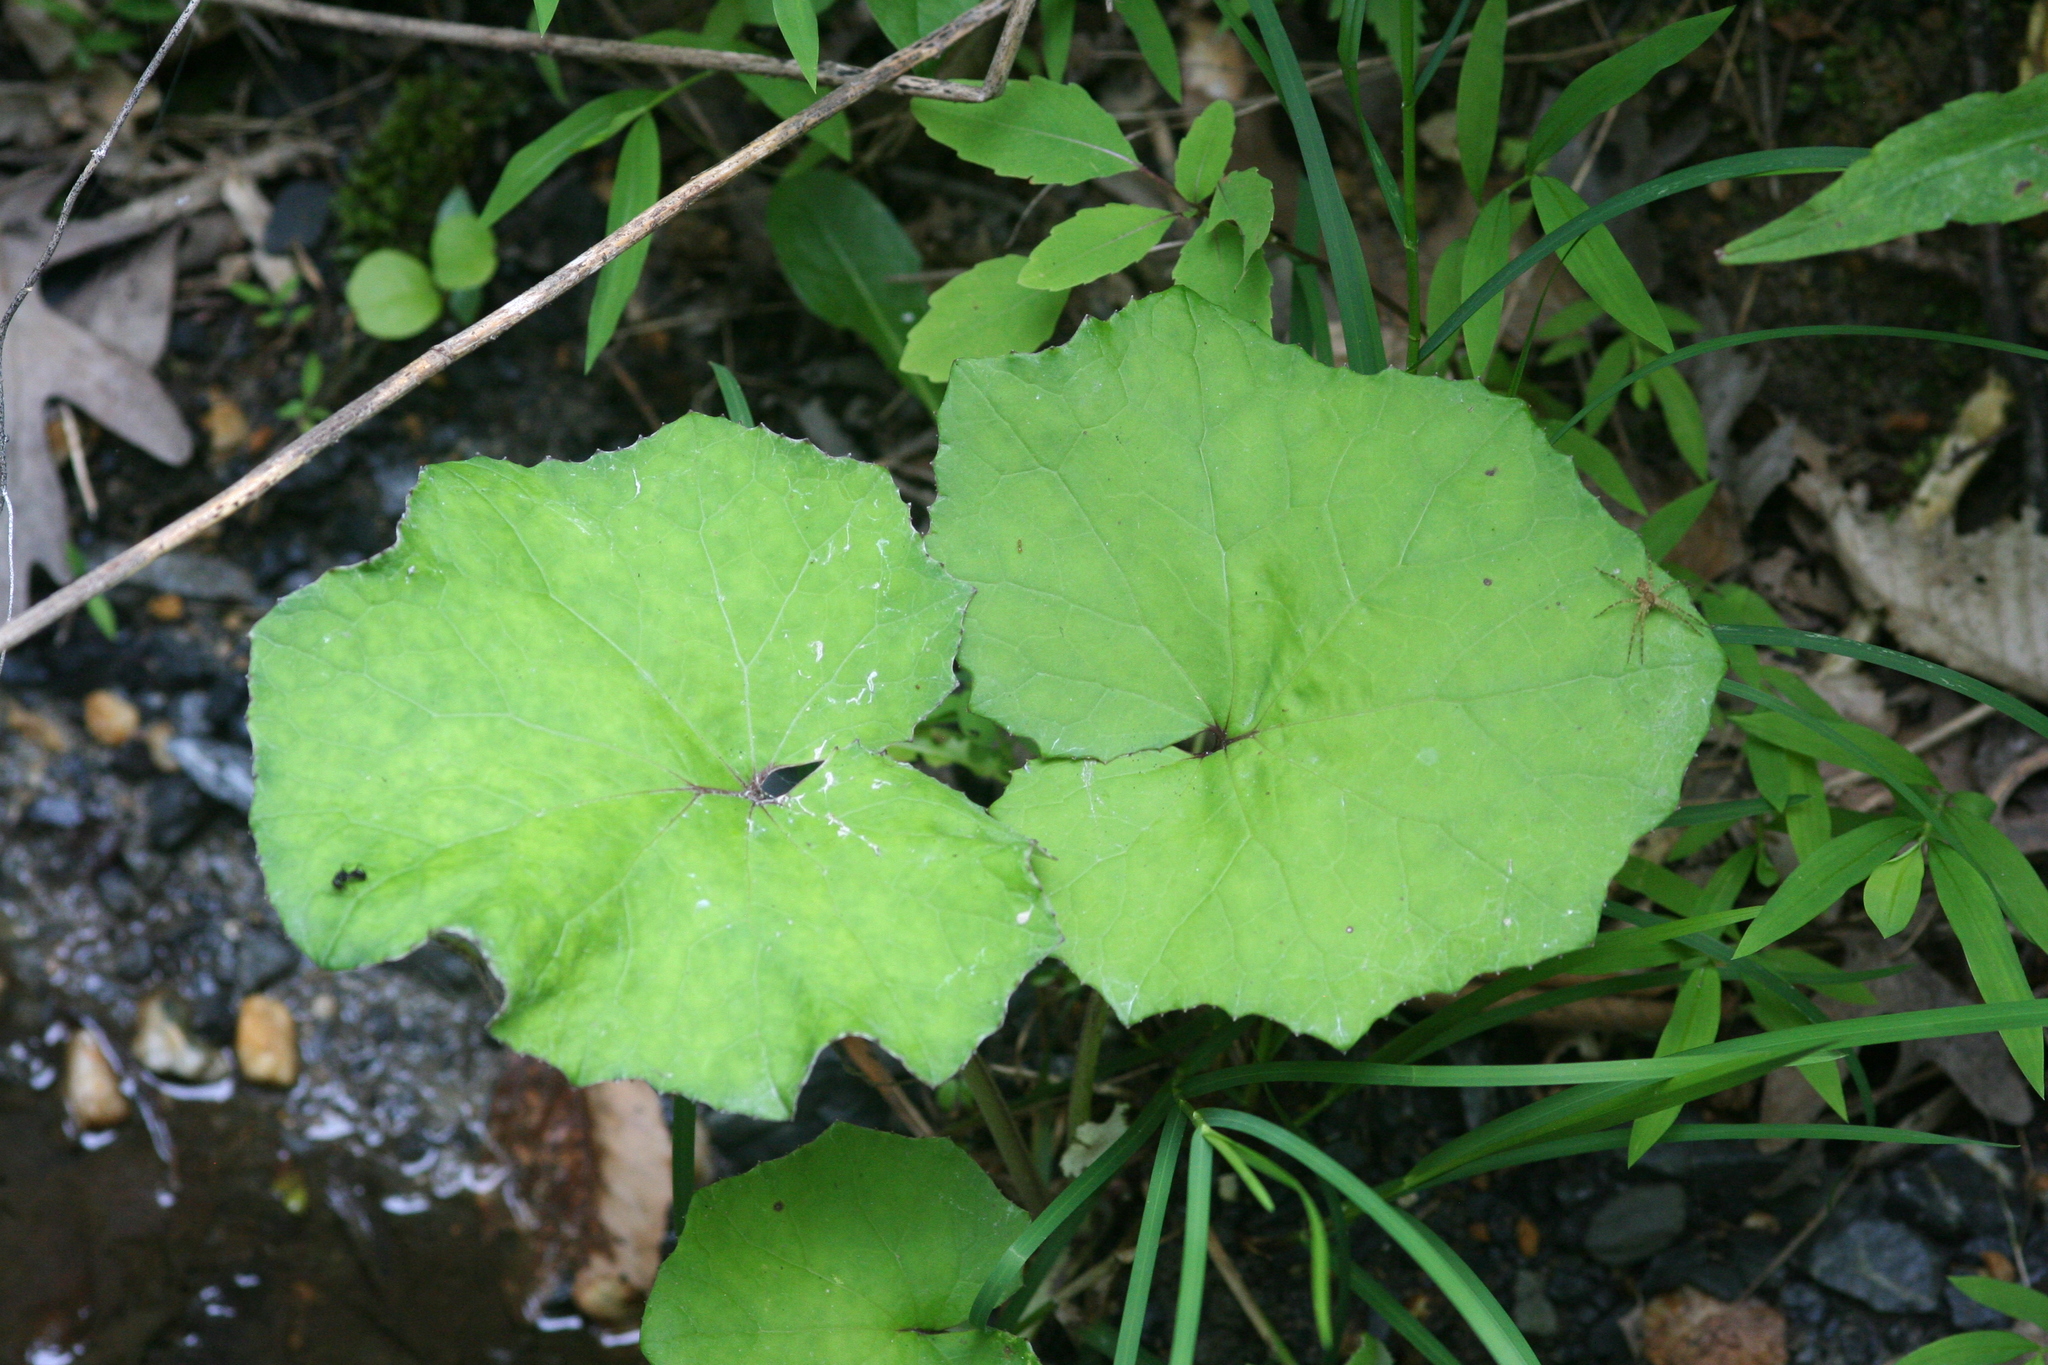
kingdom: Plantae
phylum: Tracheophyta
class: Magnoliopsida
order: Asterales
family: Asteraceae
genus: Tussilago
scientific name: Tussilago farfara
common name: Coltsfoot
